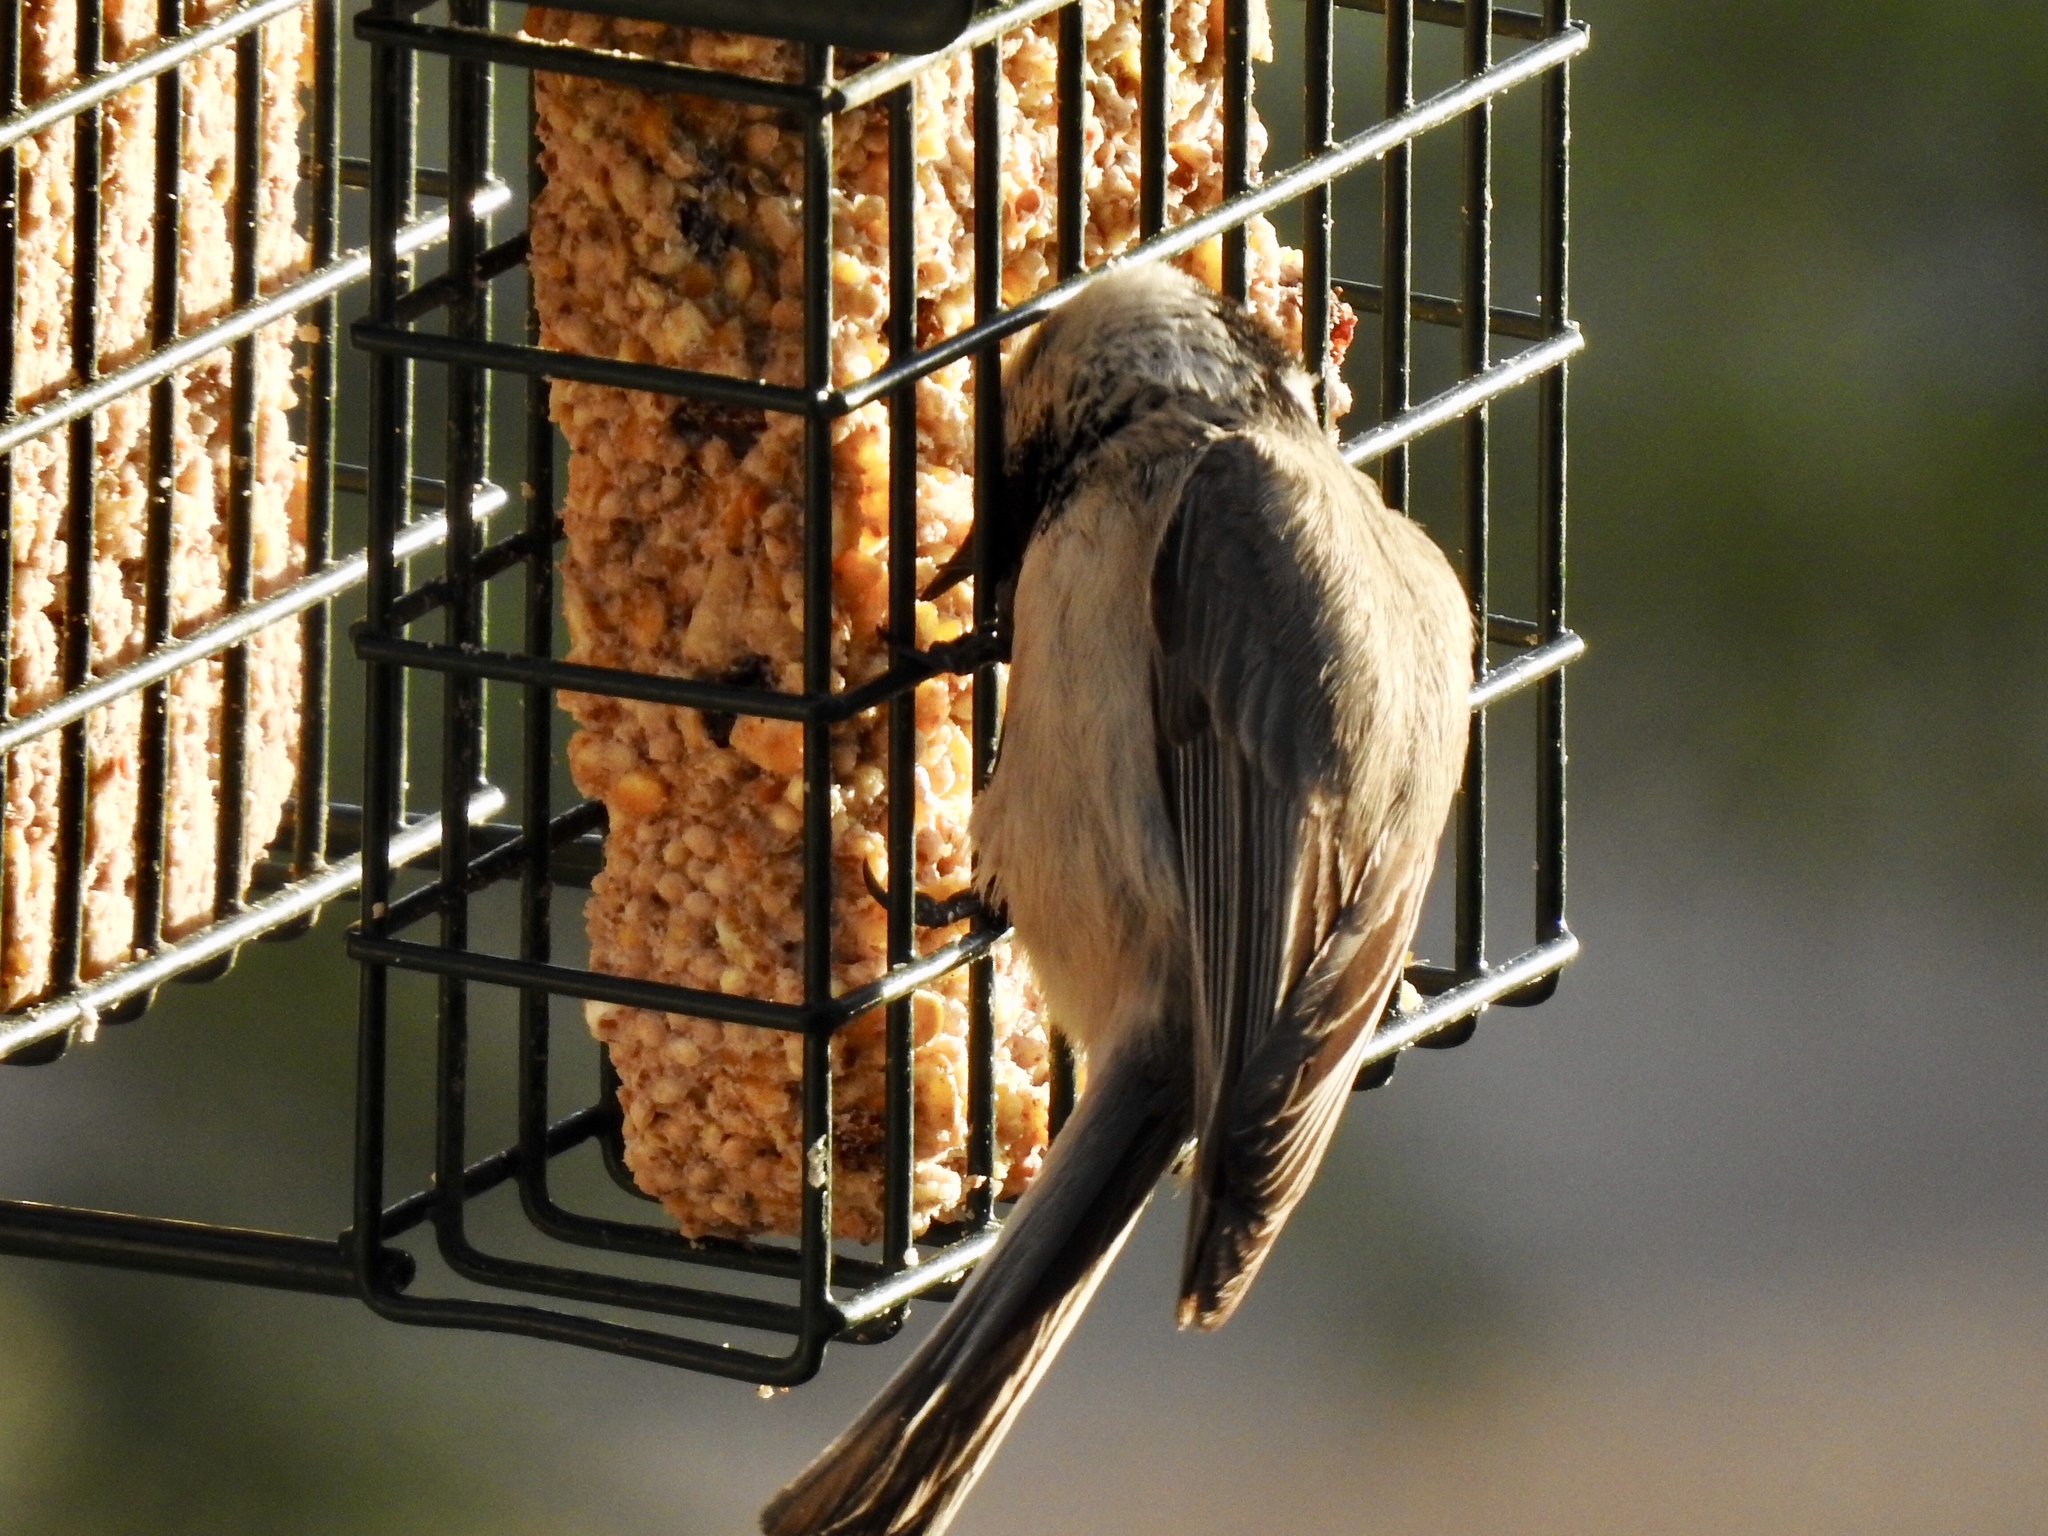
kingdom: Animalia
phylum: Chordata
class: Aves
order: Passeriformes
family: Paridae
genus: Poecile
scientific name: Poecile gambeli
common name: Mountain chickadee
